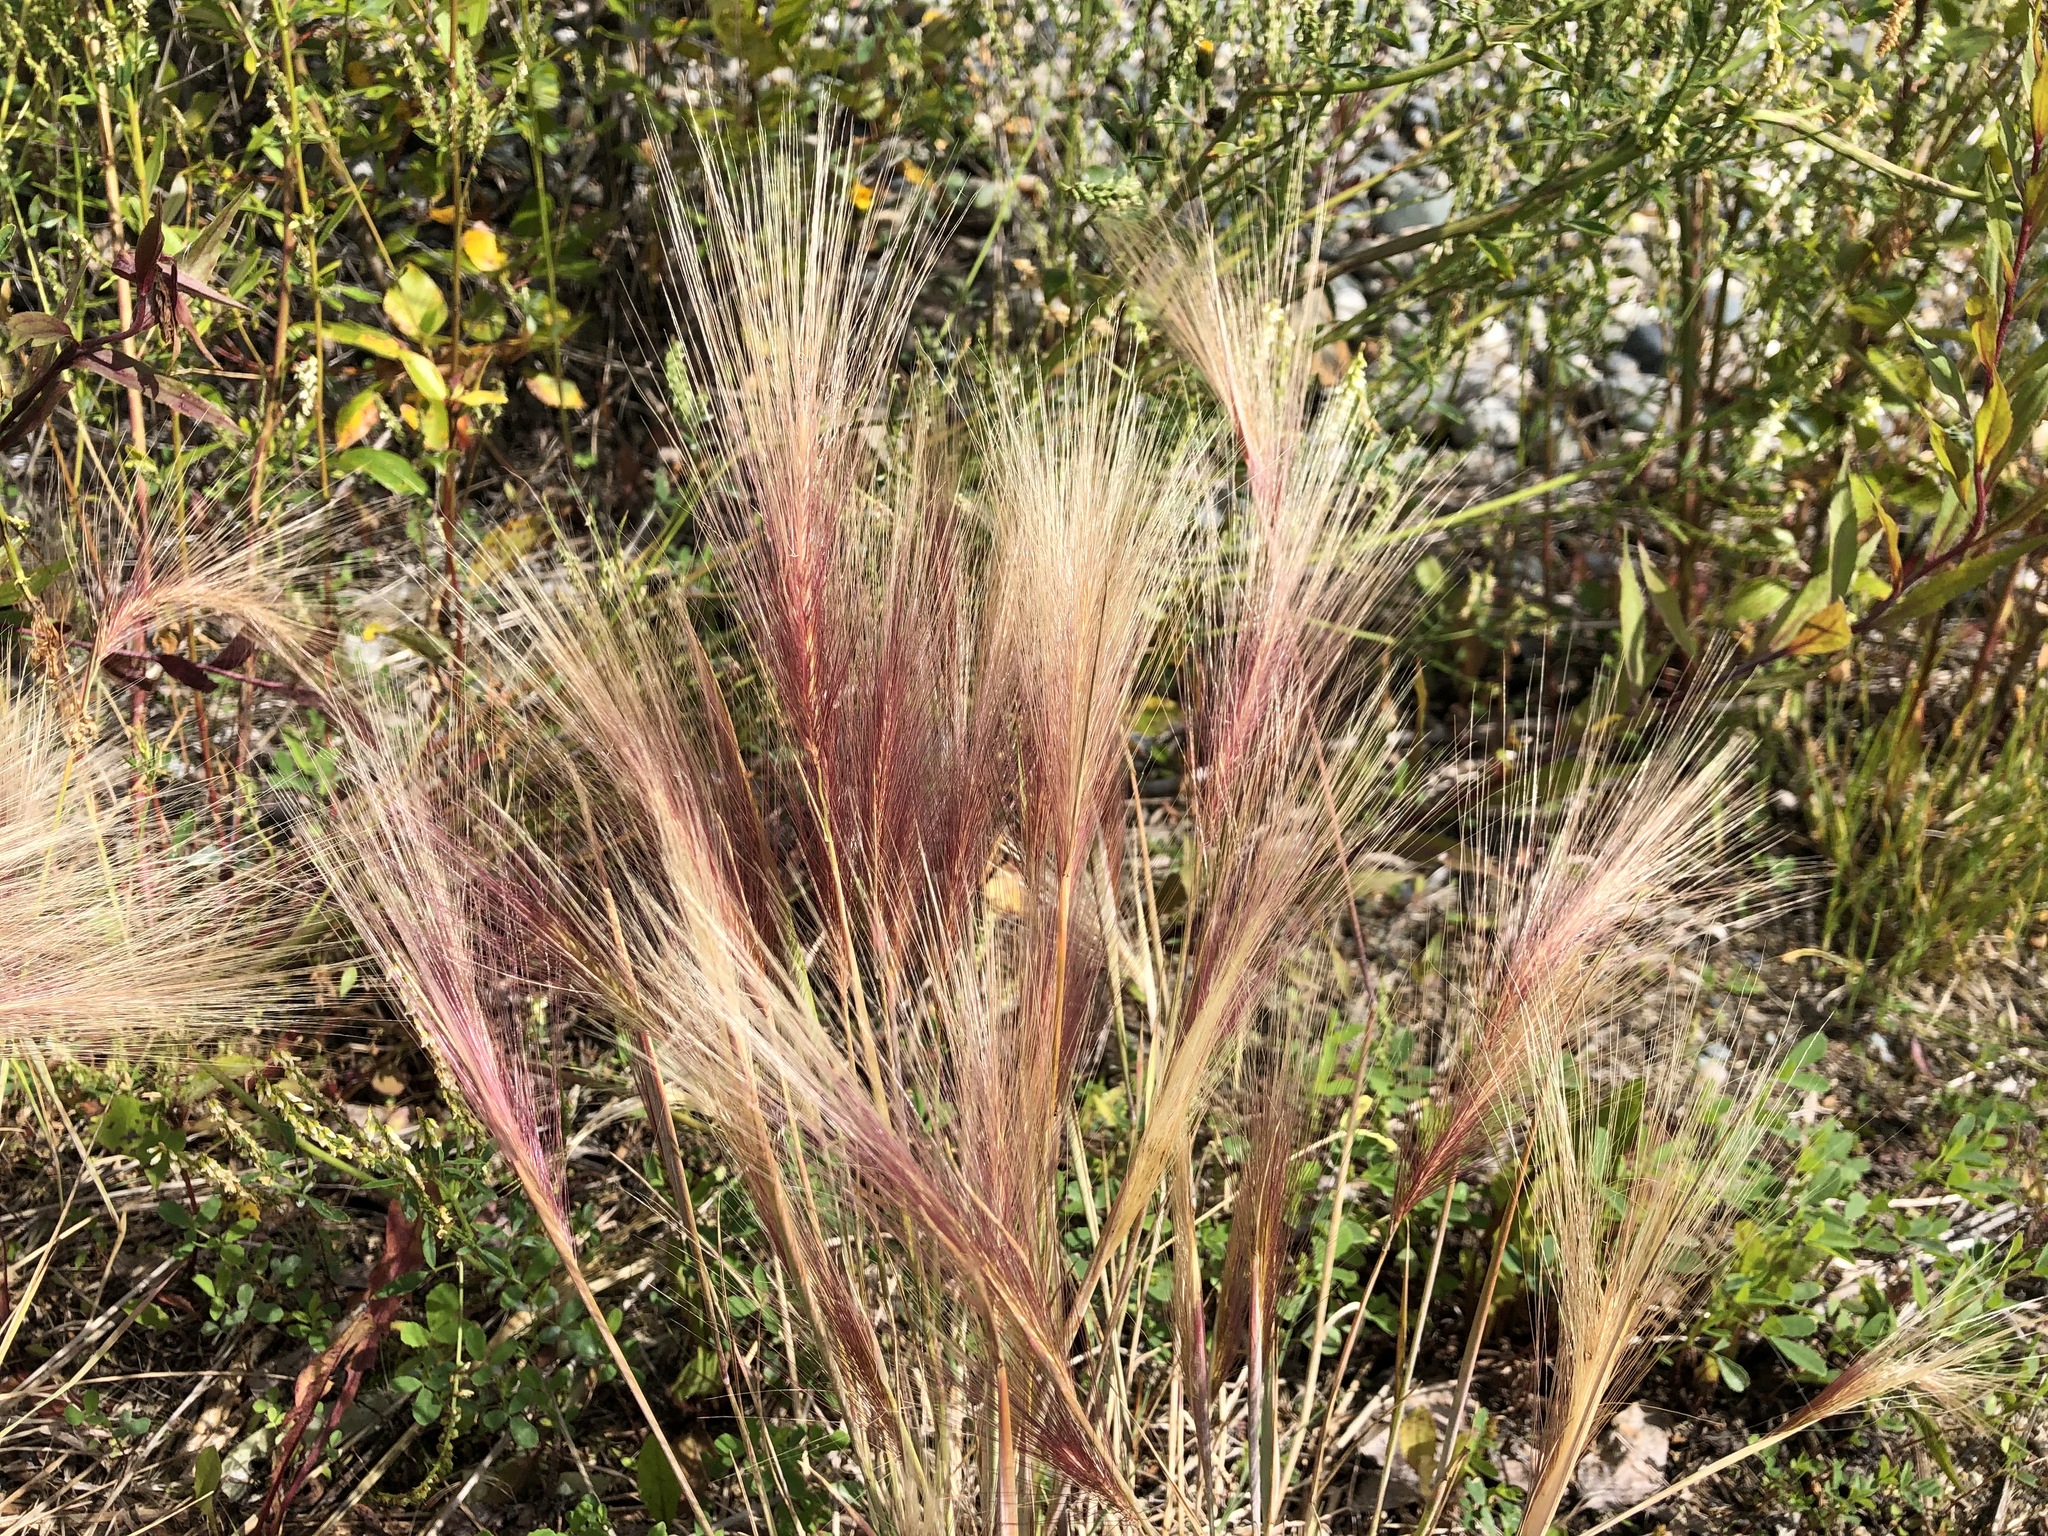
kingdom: Plantae
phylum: Tracheophyta
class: Liliopsida
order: Poales
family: Poaceae
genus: Hordeum
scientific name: Hordeum jubatum
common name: Foxtail barley
